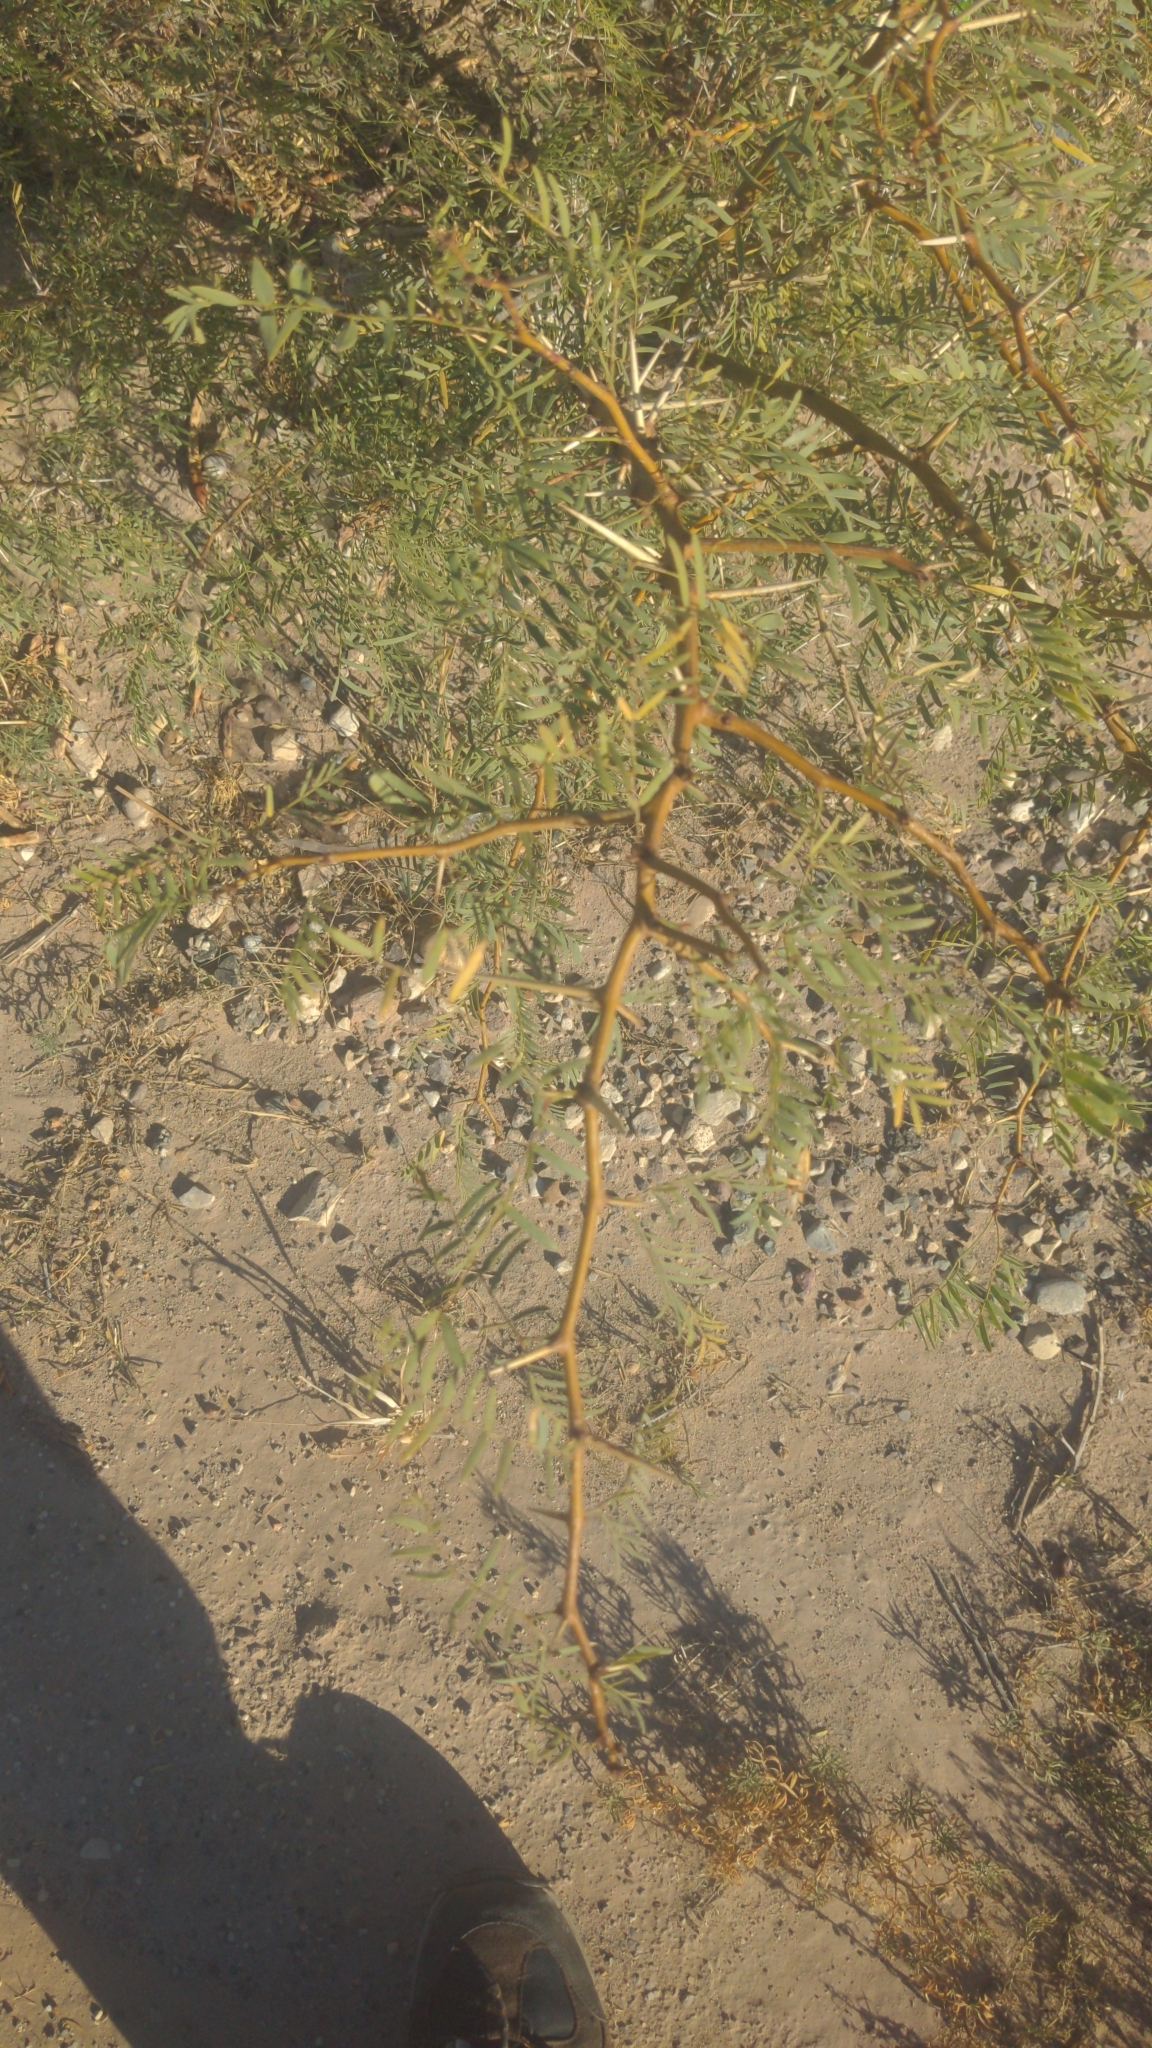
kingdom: Plantae
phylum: Tracheophyta
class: Magnoliopsida
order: Fabales
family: Fabaceae
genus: Prosopis
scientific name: Prosopis glandulosa
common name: Honey mesquite
